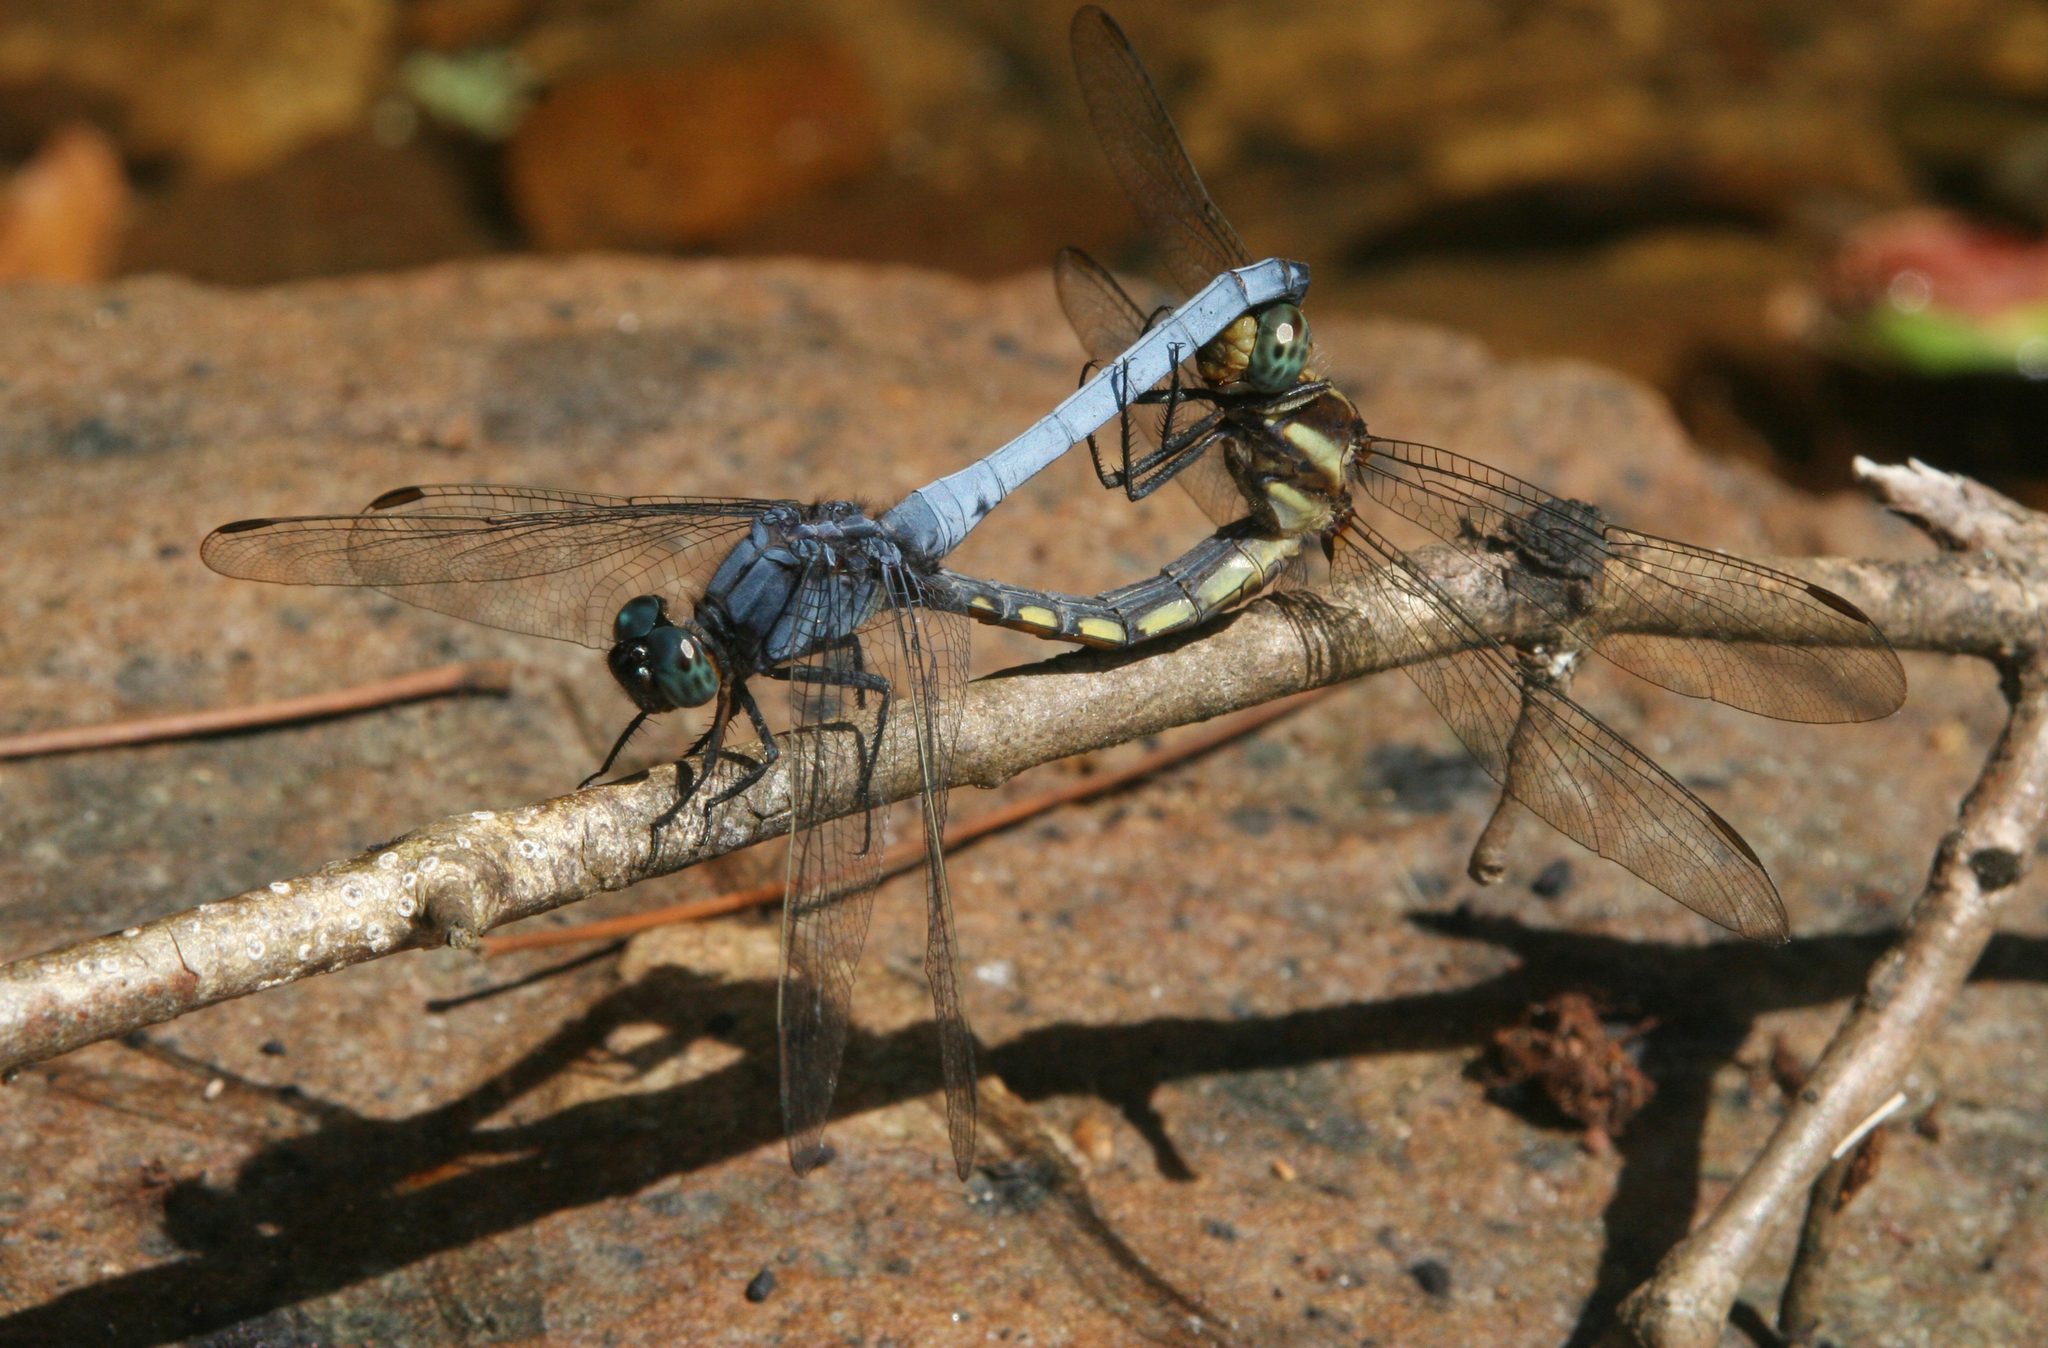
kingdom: Animalia
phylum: Arthropoda
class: Insecta
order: Odonata
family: Libellulidae
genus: Orthetrum
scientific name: Orthetrum glaucum
